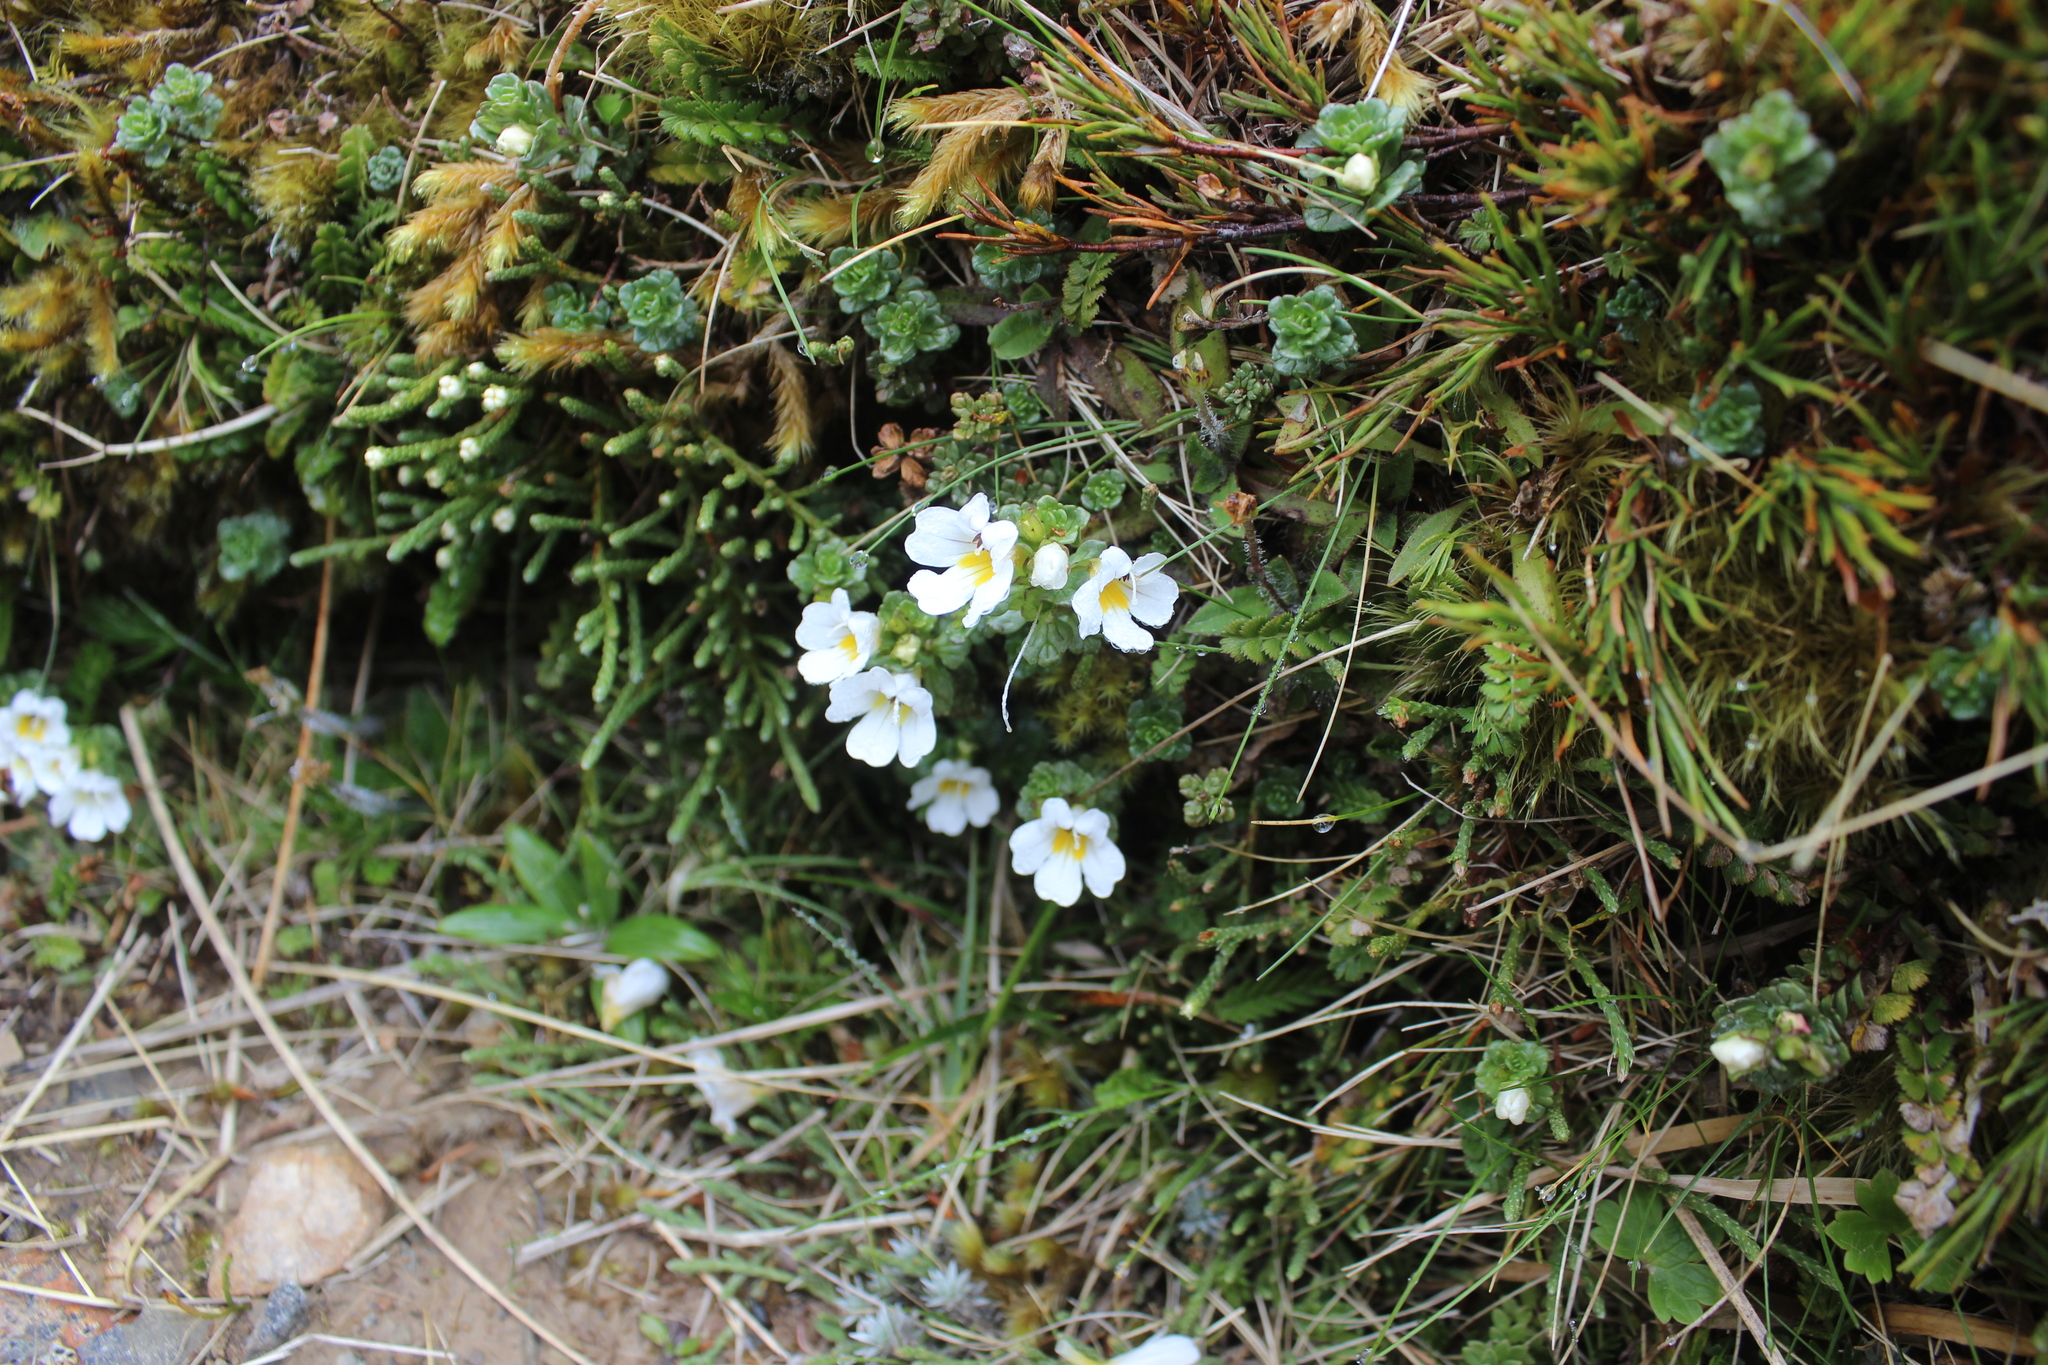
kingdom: Plantae
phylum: Tracheophyta
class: Magnoliopsida
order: Lamiales
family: Orobanchaceae
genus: Euphrasia
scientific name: Euphrasia drucei
